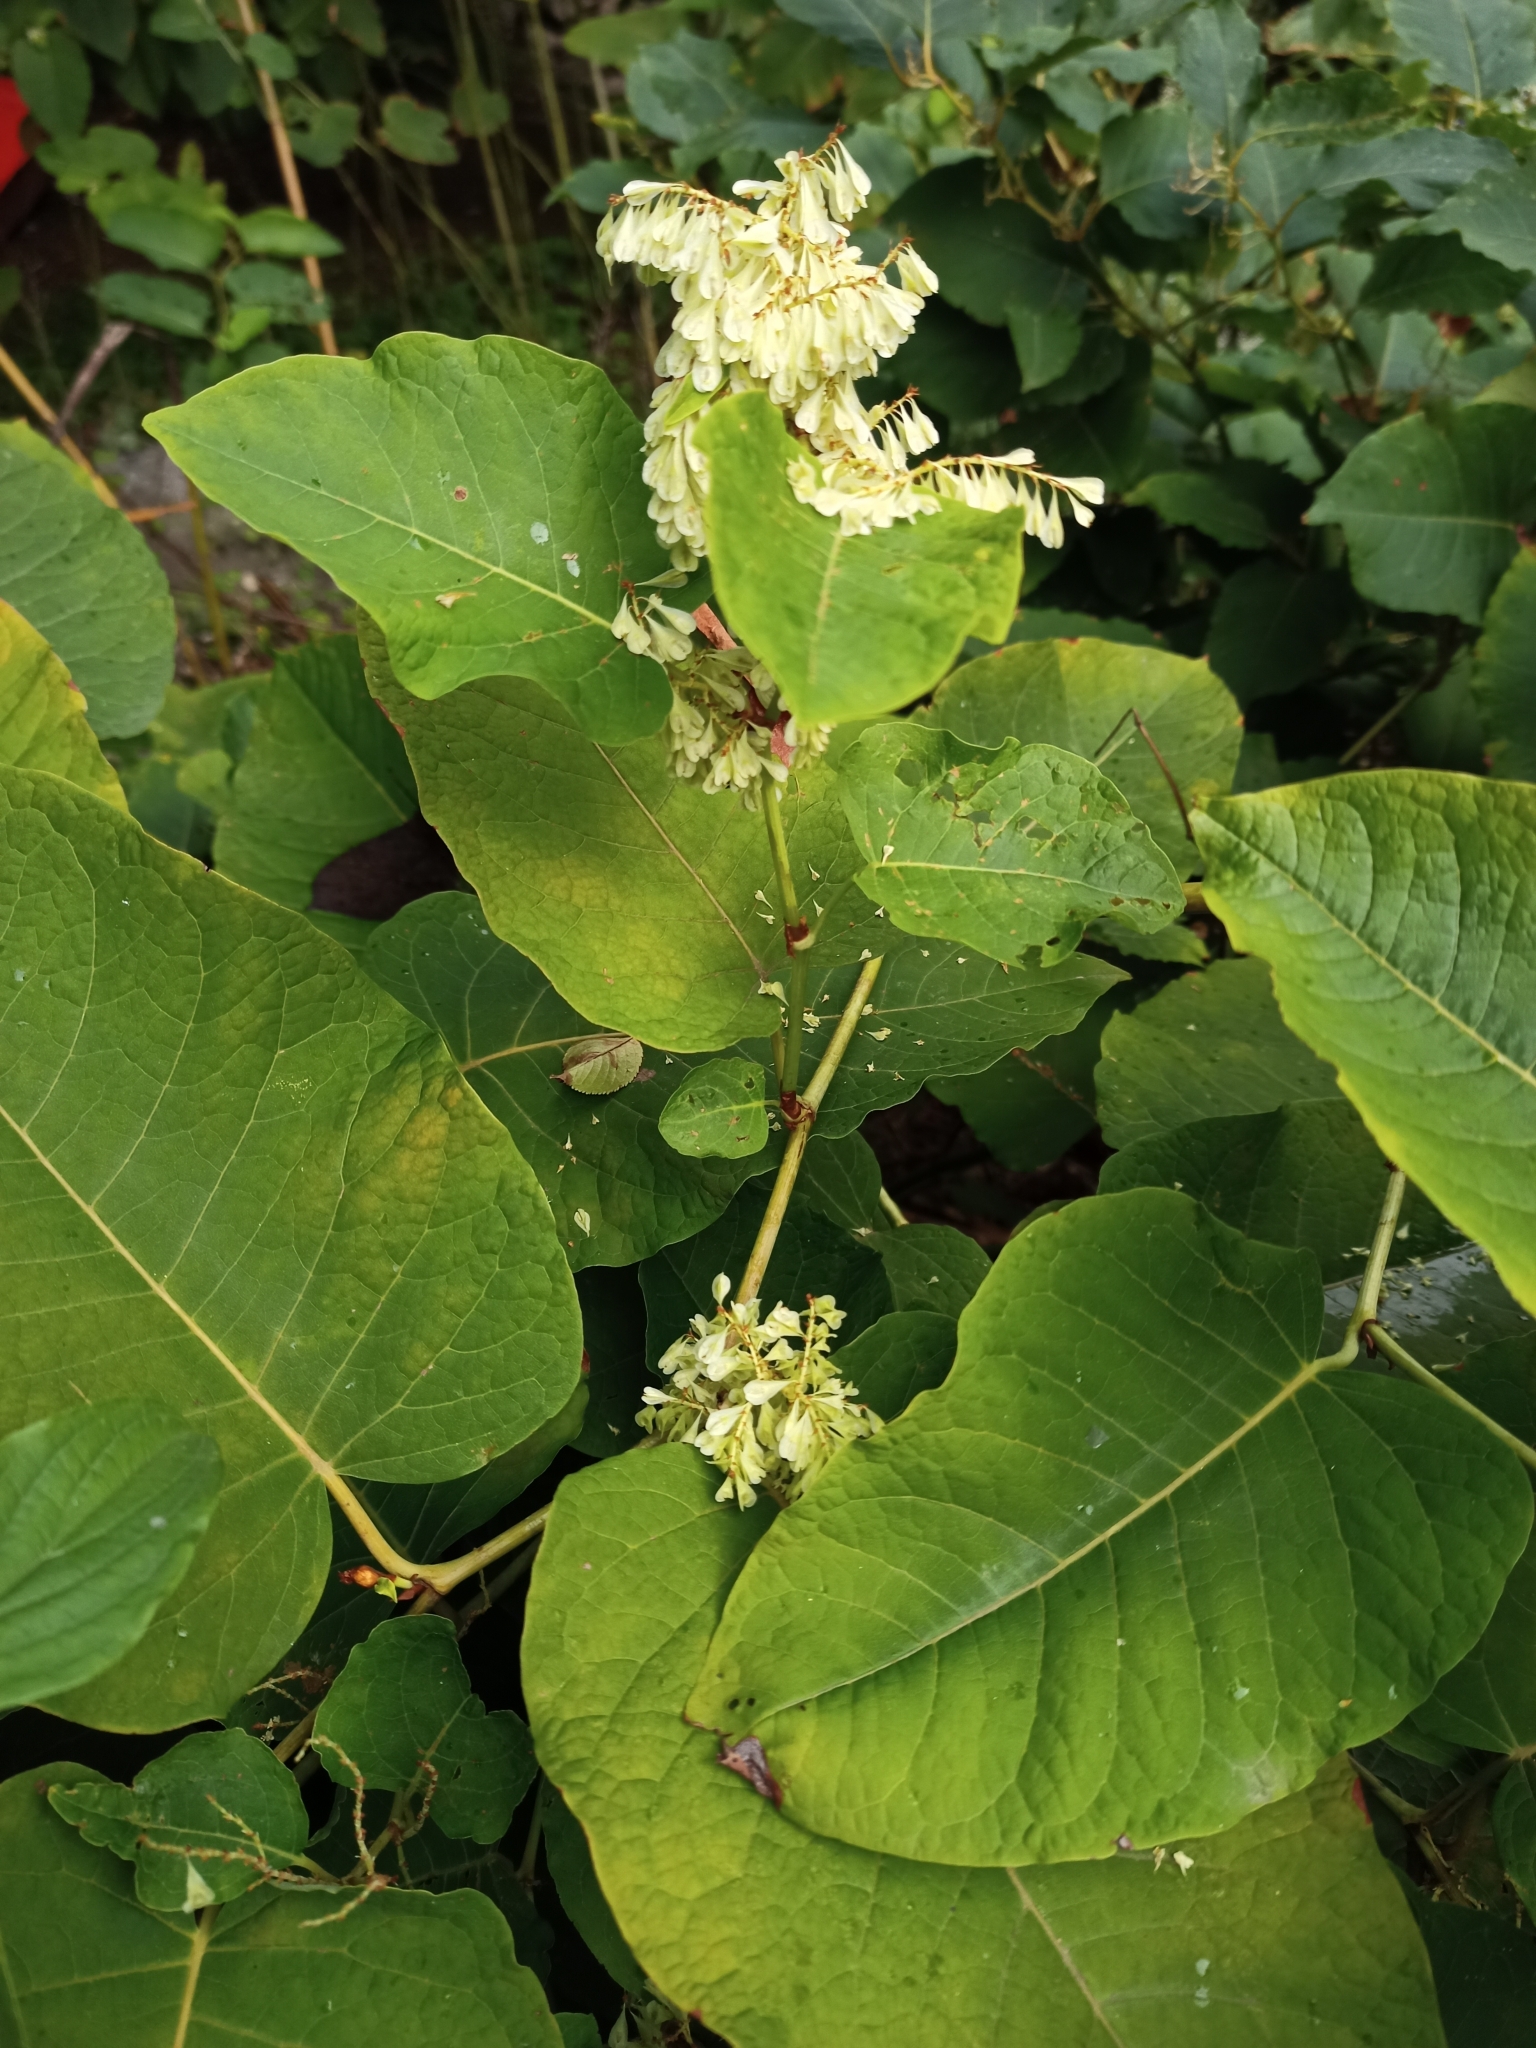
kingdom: Plantae
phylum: Tracheophyta
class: Magnoliopsida
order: Caryophyllales
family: Polygonaceae
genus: Reynoutria
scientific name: Reynoutria sachalinensis
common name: Giant knotweed
